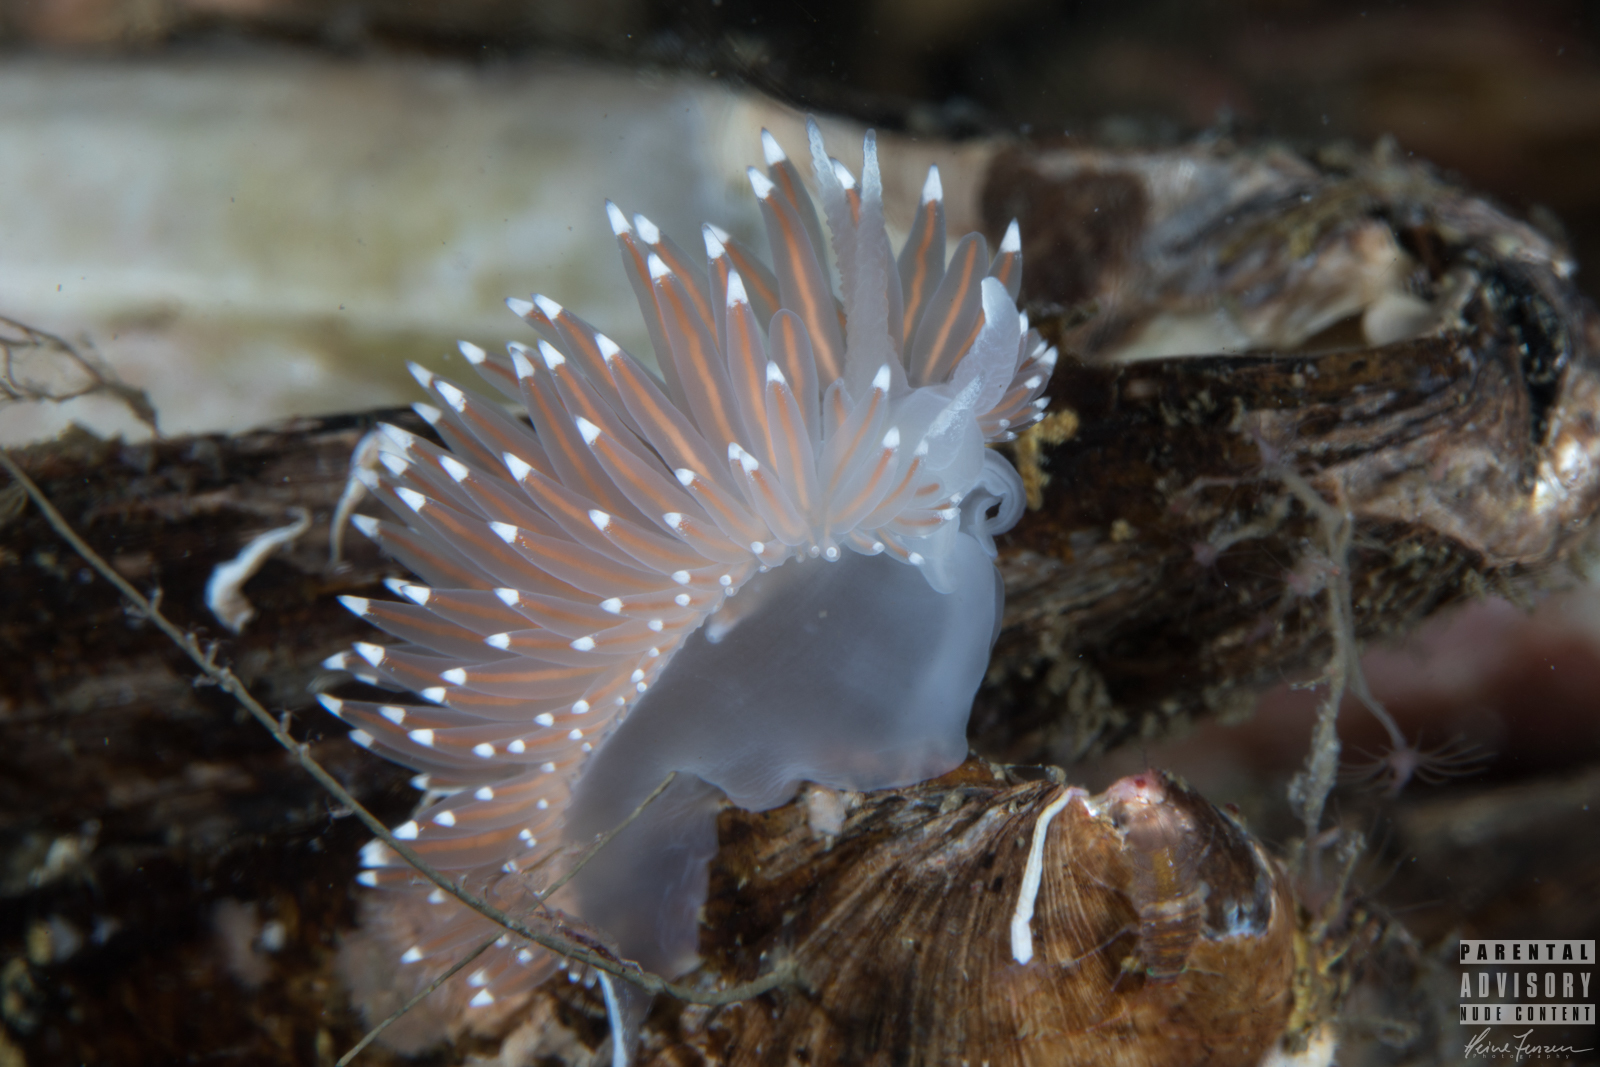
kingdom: Animalia
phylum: Mollusca
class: Gastropoda
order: Nudibranchia
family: Coryphellidae
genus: Coryphella
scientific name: Coryphella nobilis
